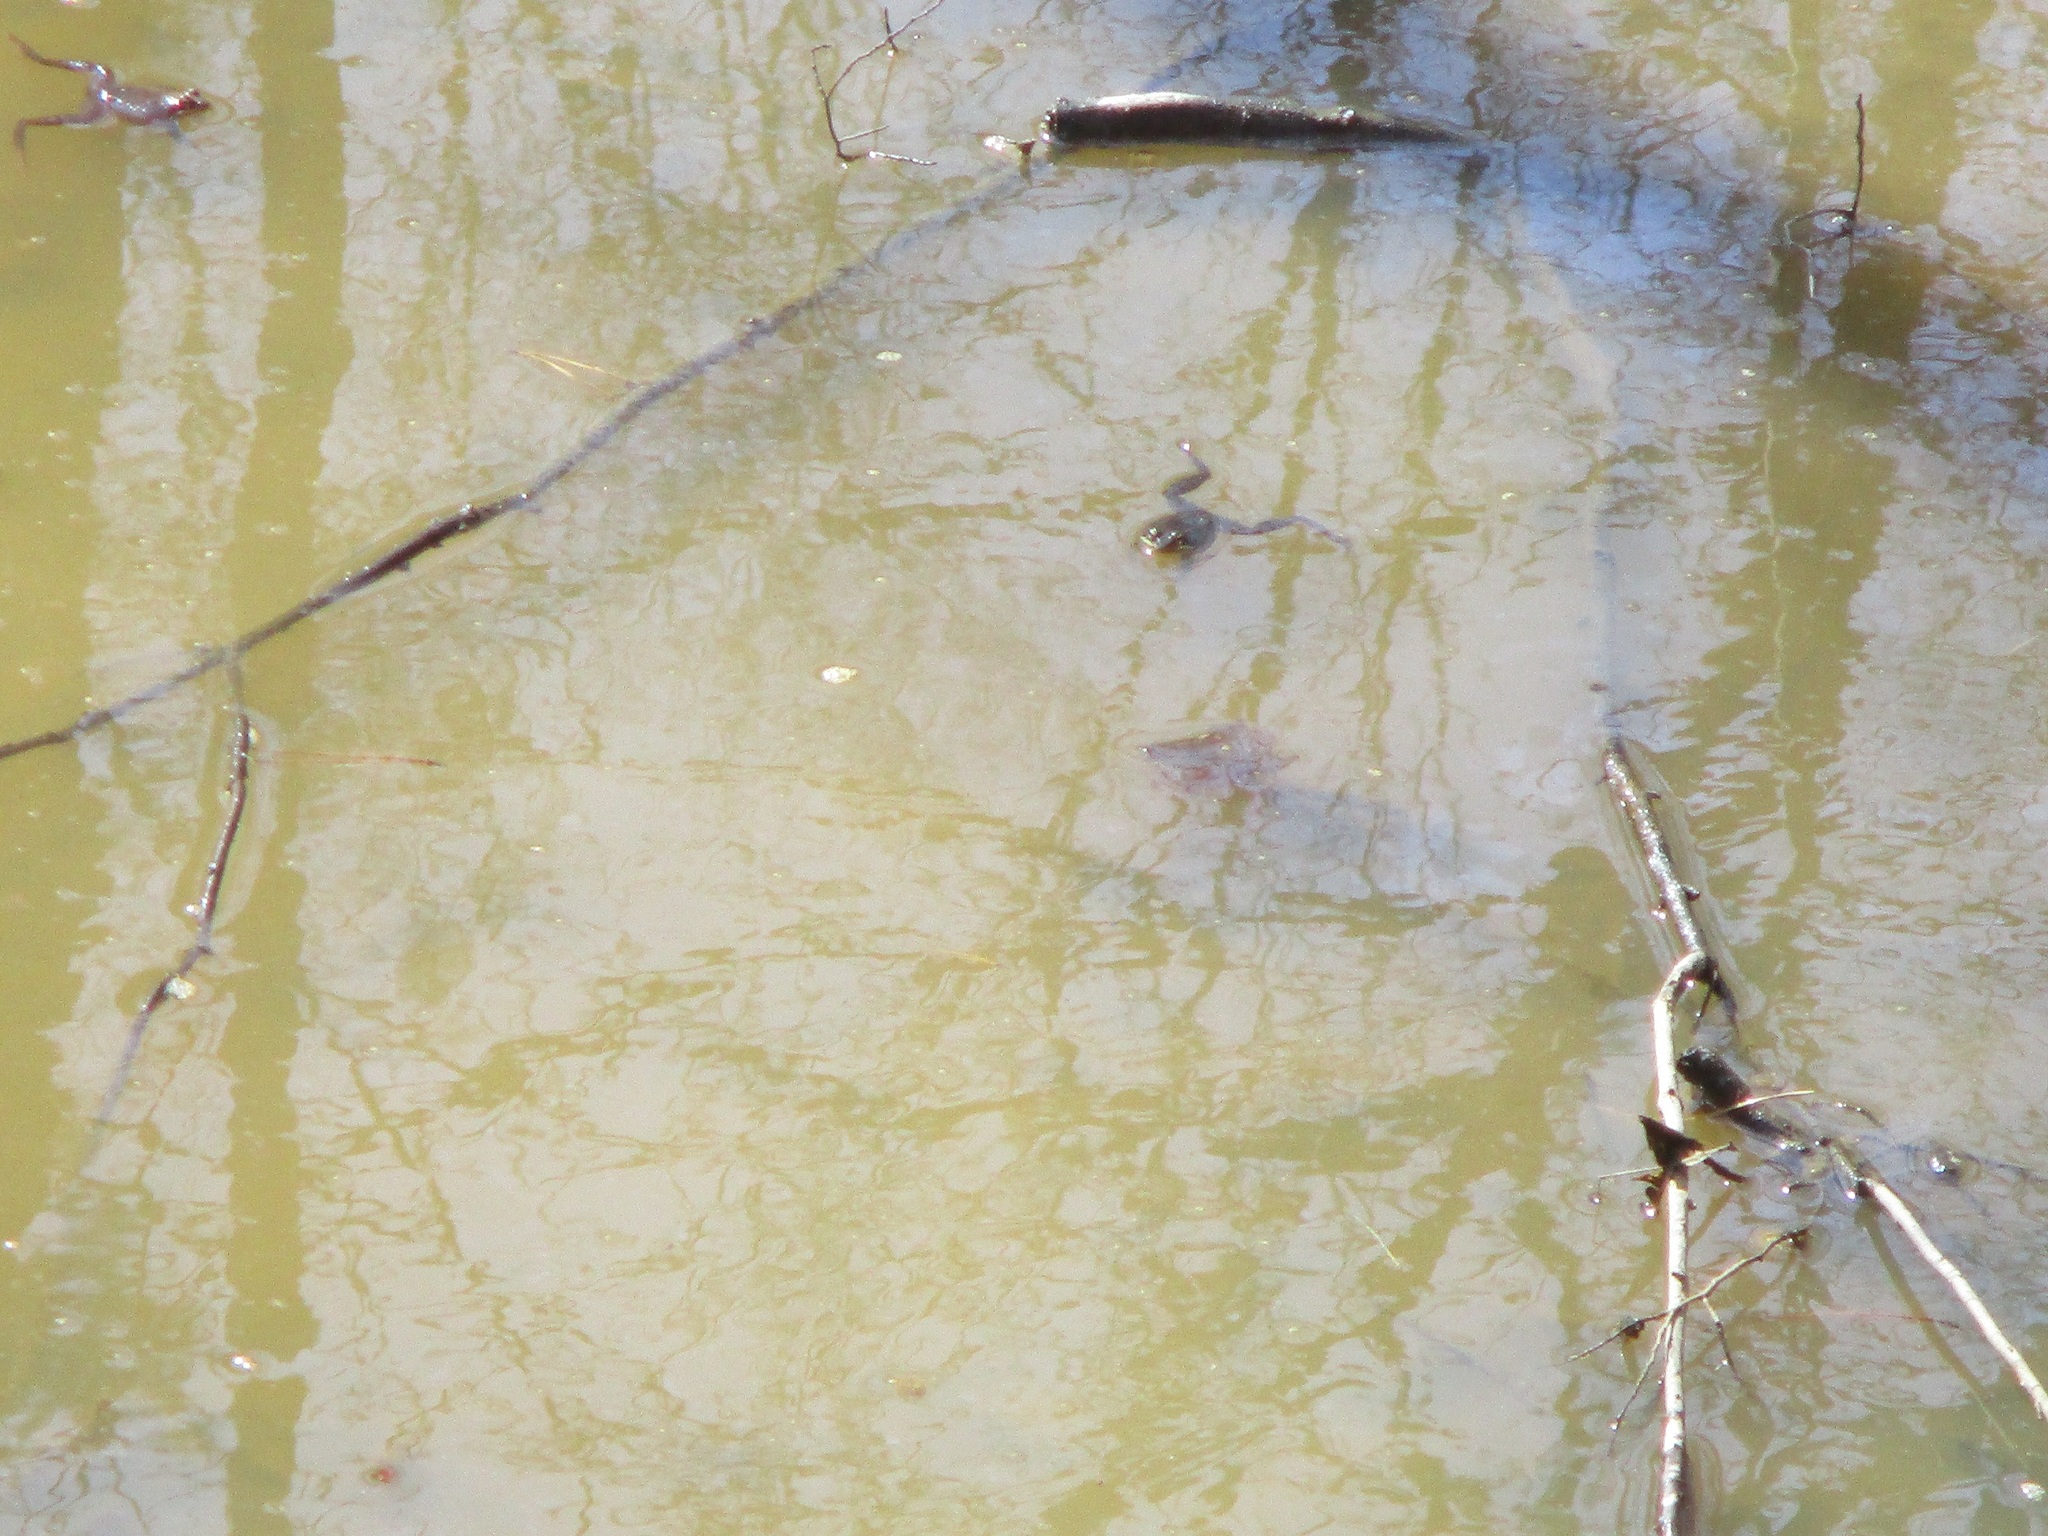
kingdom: Animalia
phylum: Chordata
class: Amphibia
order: Anura
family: Ranidae
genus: Lithobates
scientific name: Lithobates sylvaticus
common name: Wood frog
